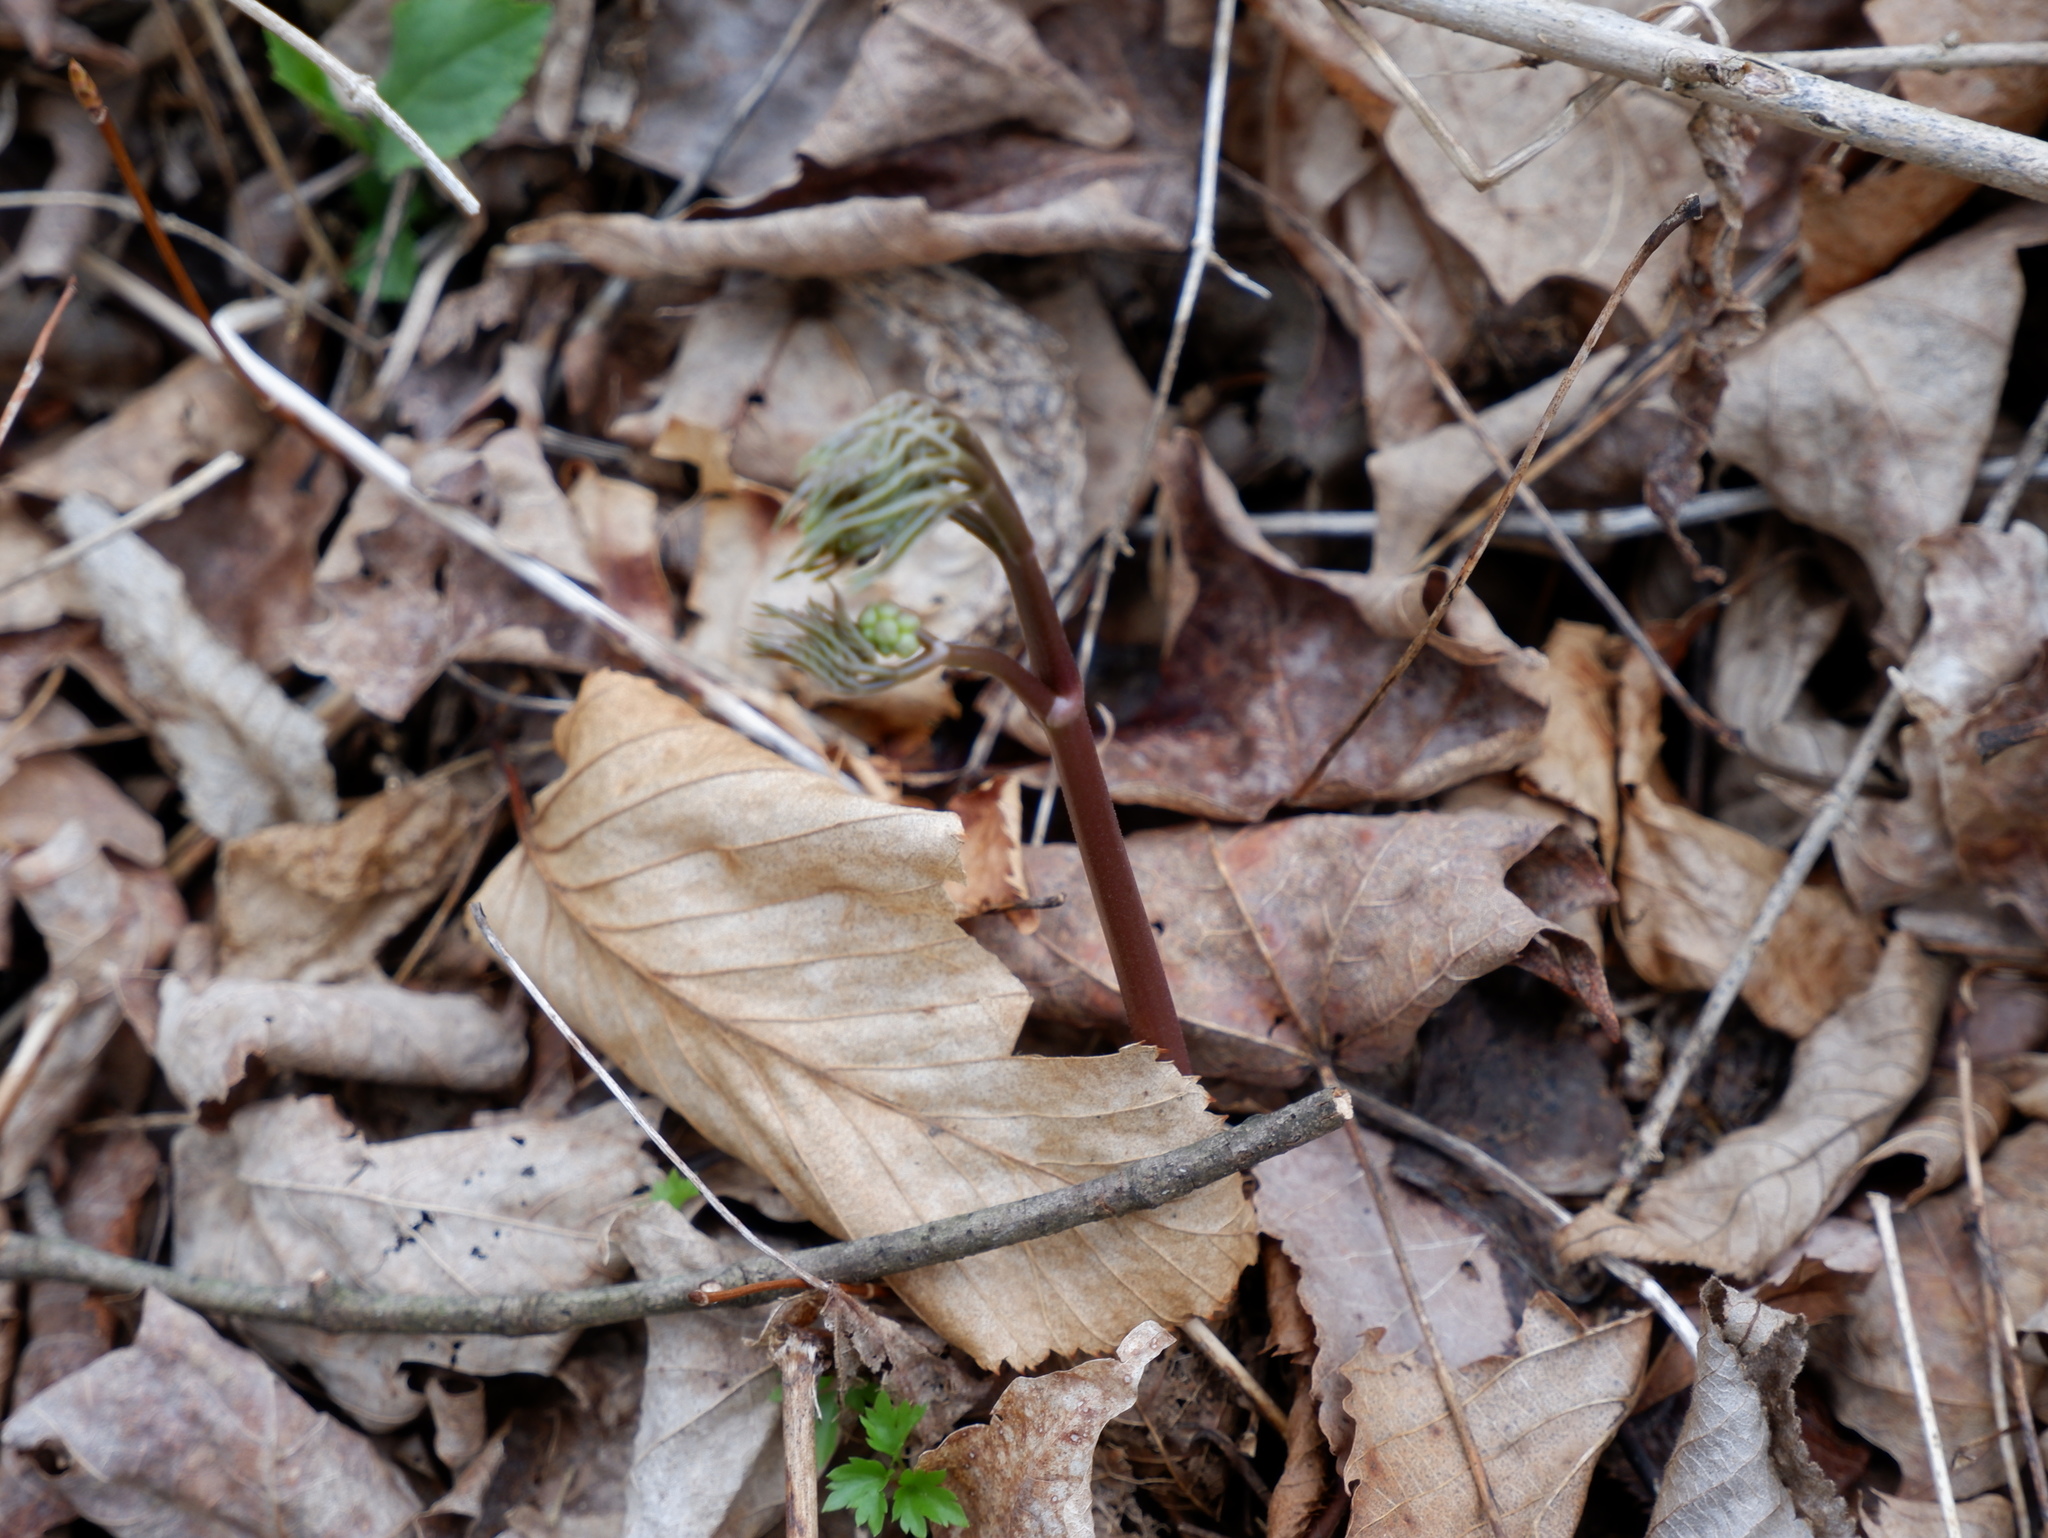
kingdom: Plantae
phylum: Tracheophyta
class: Magnoliopsida
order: Apiales
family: Araliaceae
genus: Aralia
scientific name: Aralia nudicaulis
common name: Wild sarsaparilla
